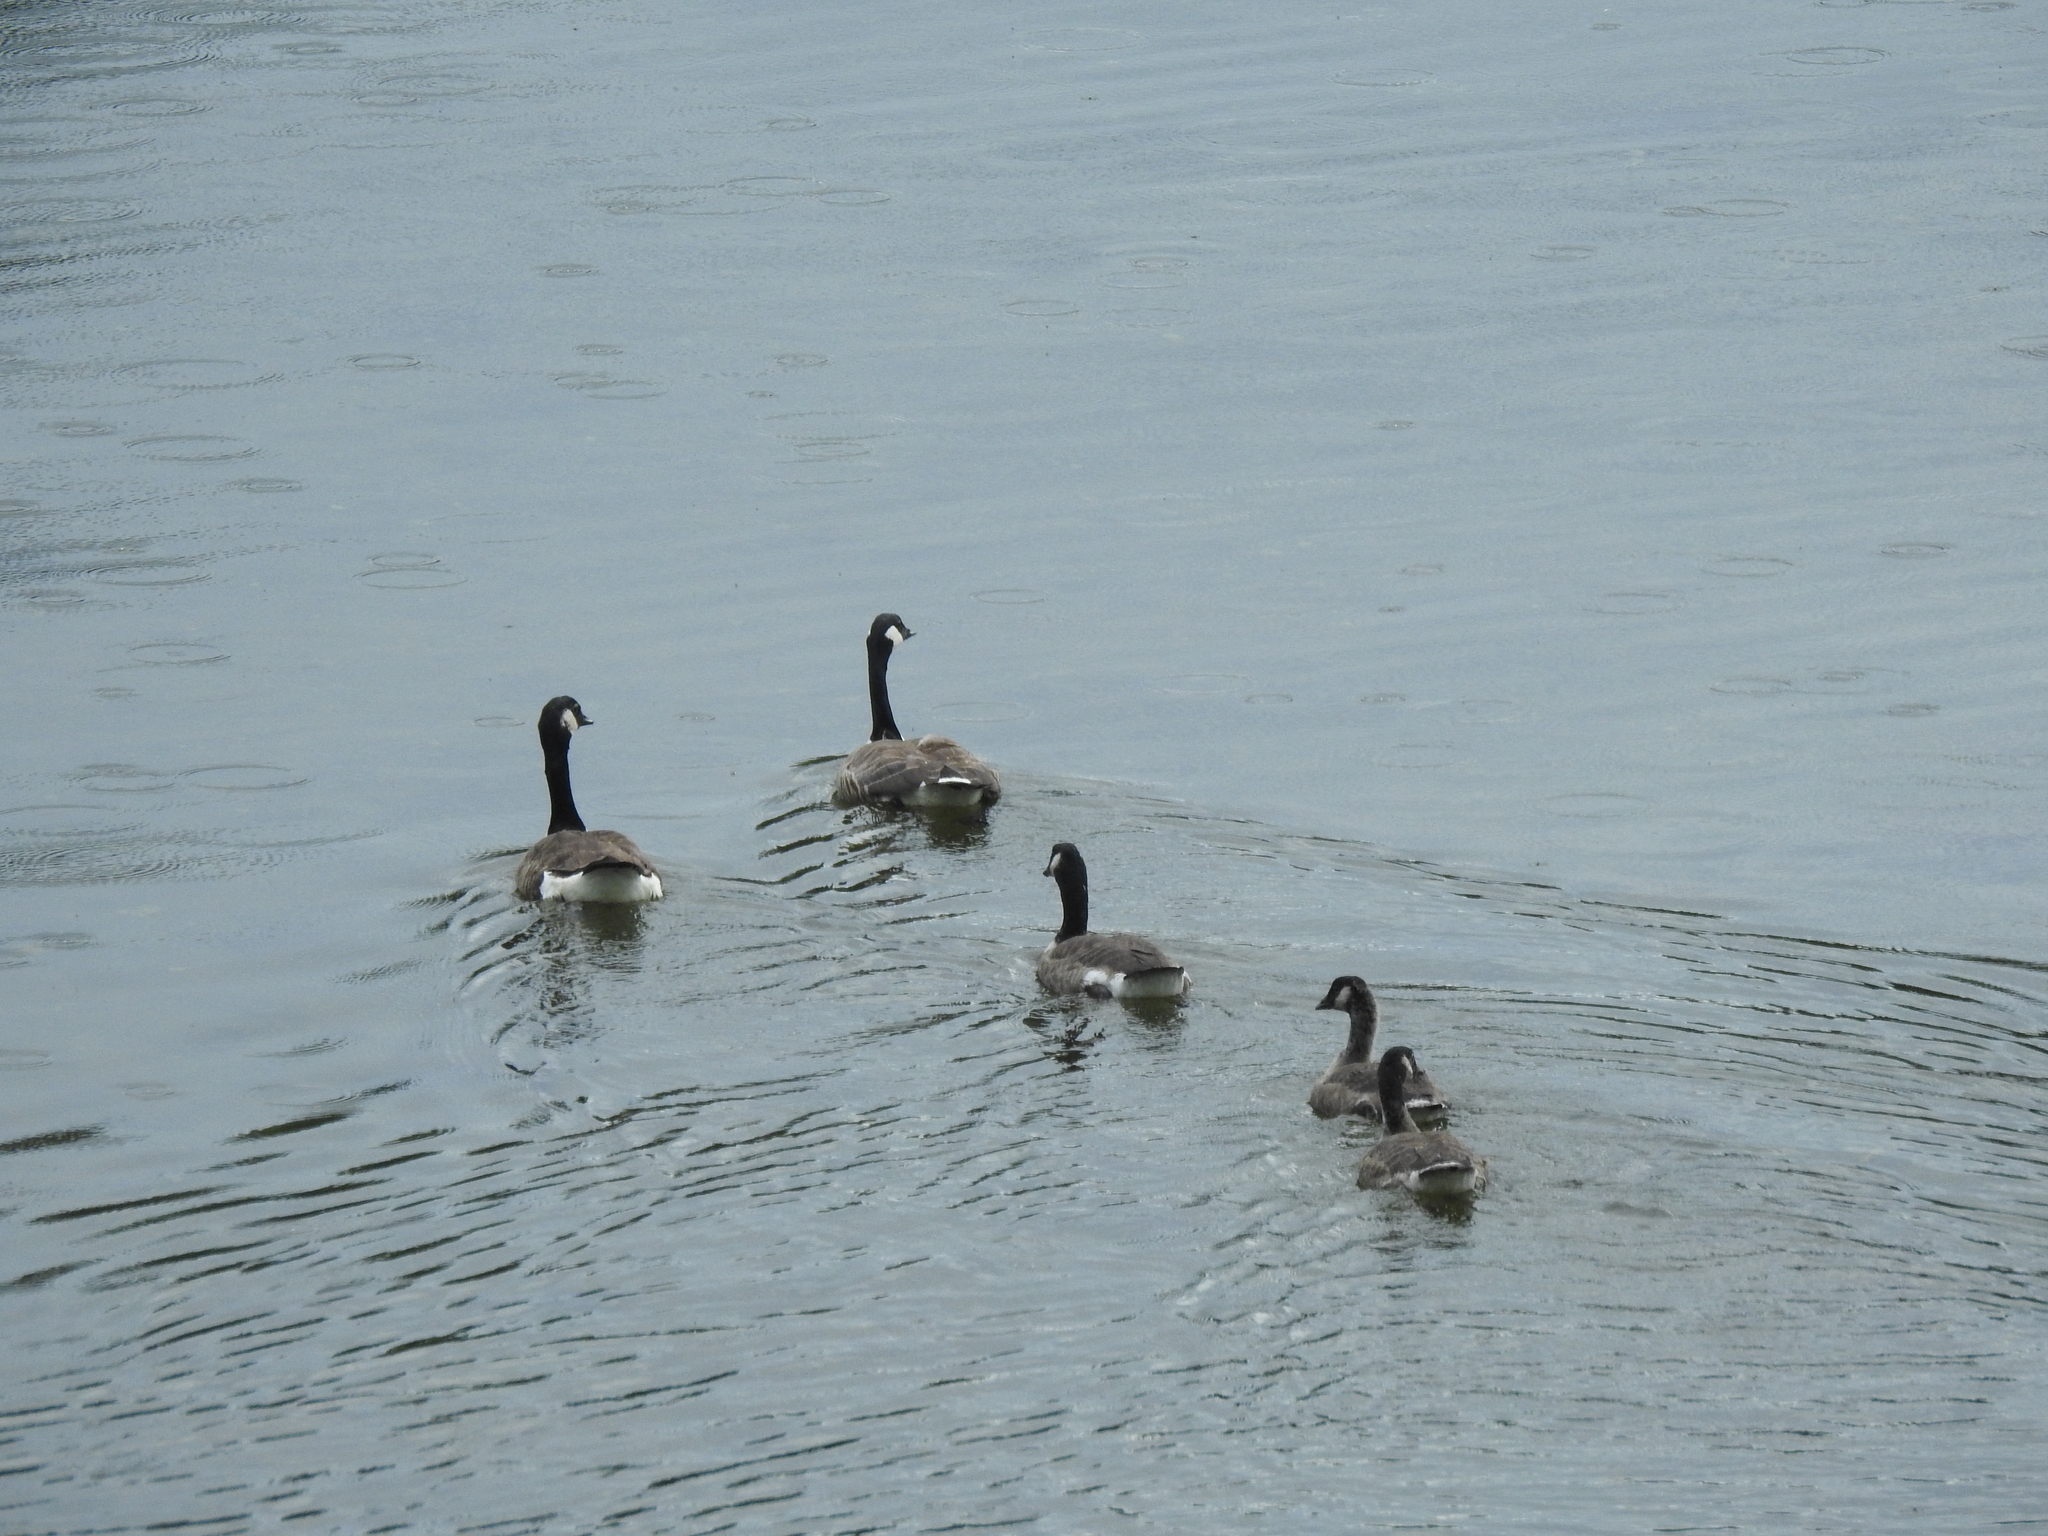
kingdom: Animalia
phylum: Chordata
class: Aves
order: Anseriformes
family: Anatidae
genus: Branta
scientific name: Branta canadensis
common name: Canada goose
